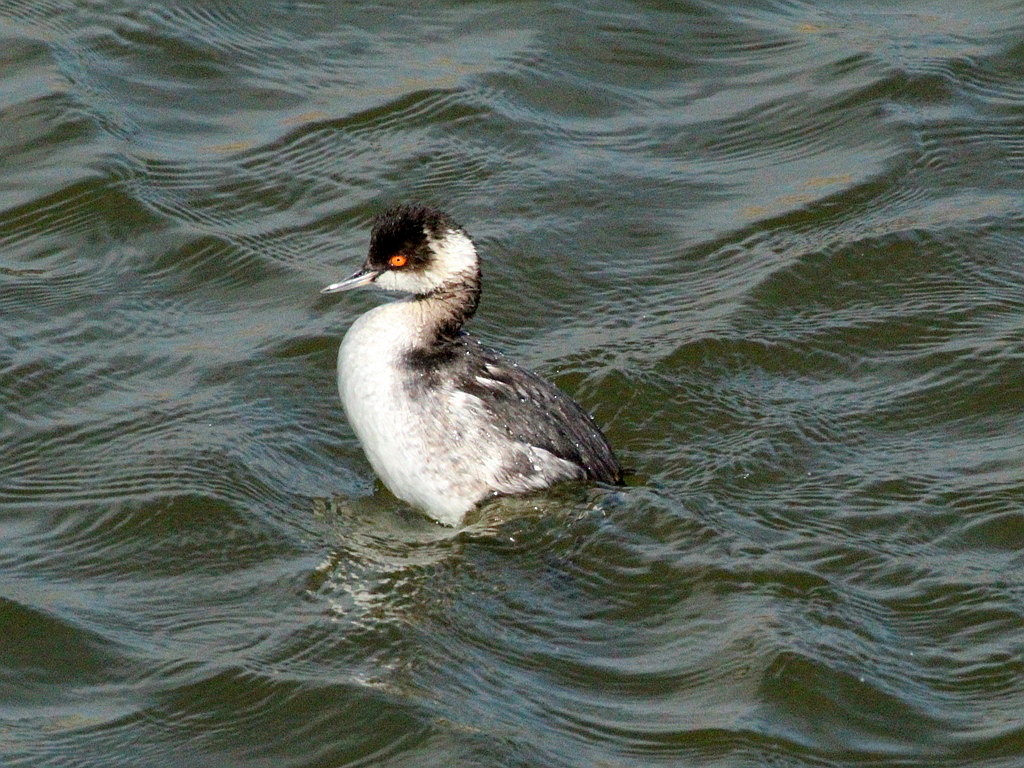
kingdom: Animalia
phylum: Chordata
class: Aves
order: Podicipediformes
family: Podicipedidae
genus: Podiceps
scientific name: Podiceps nigricollis
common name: Black-necked grebe
